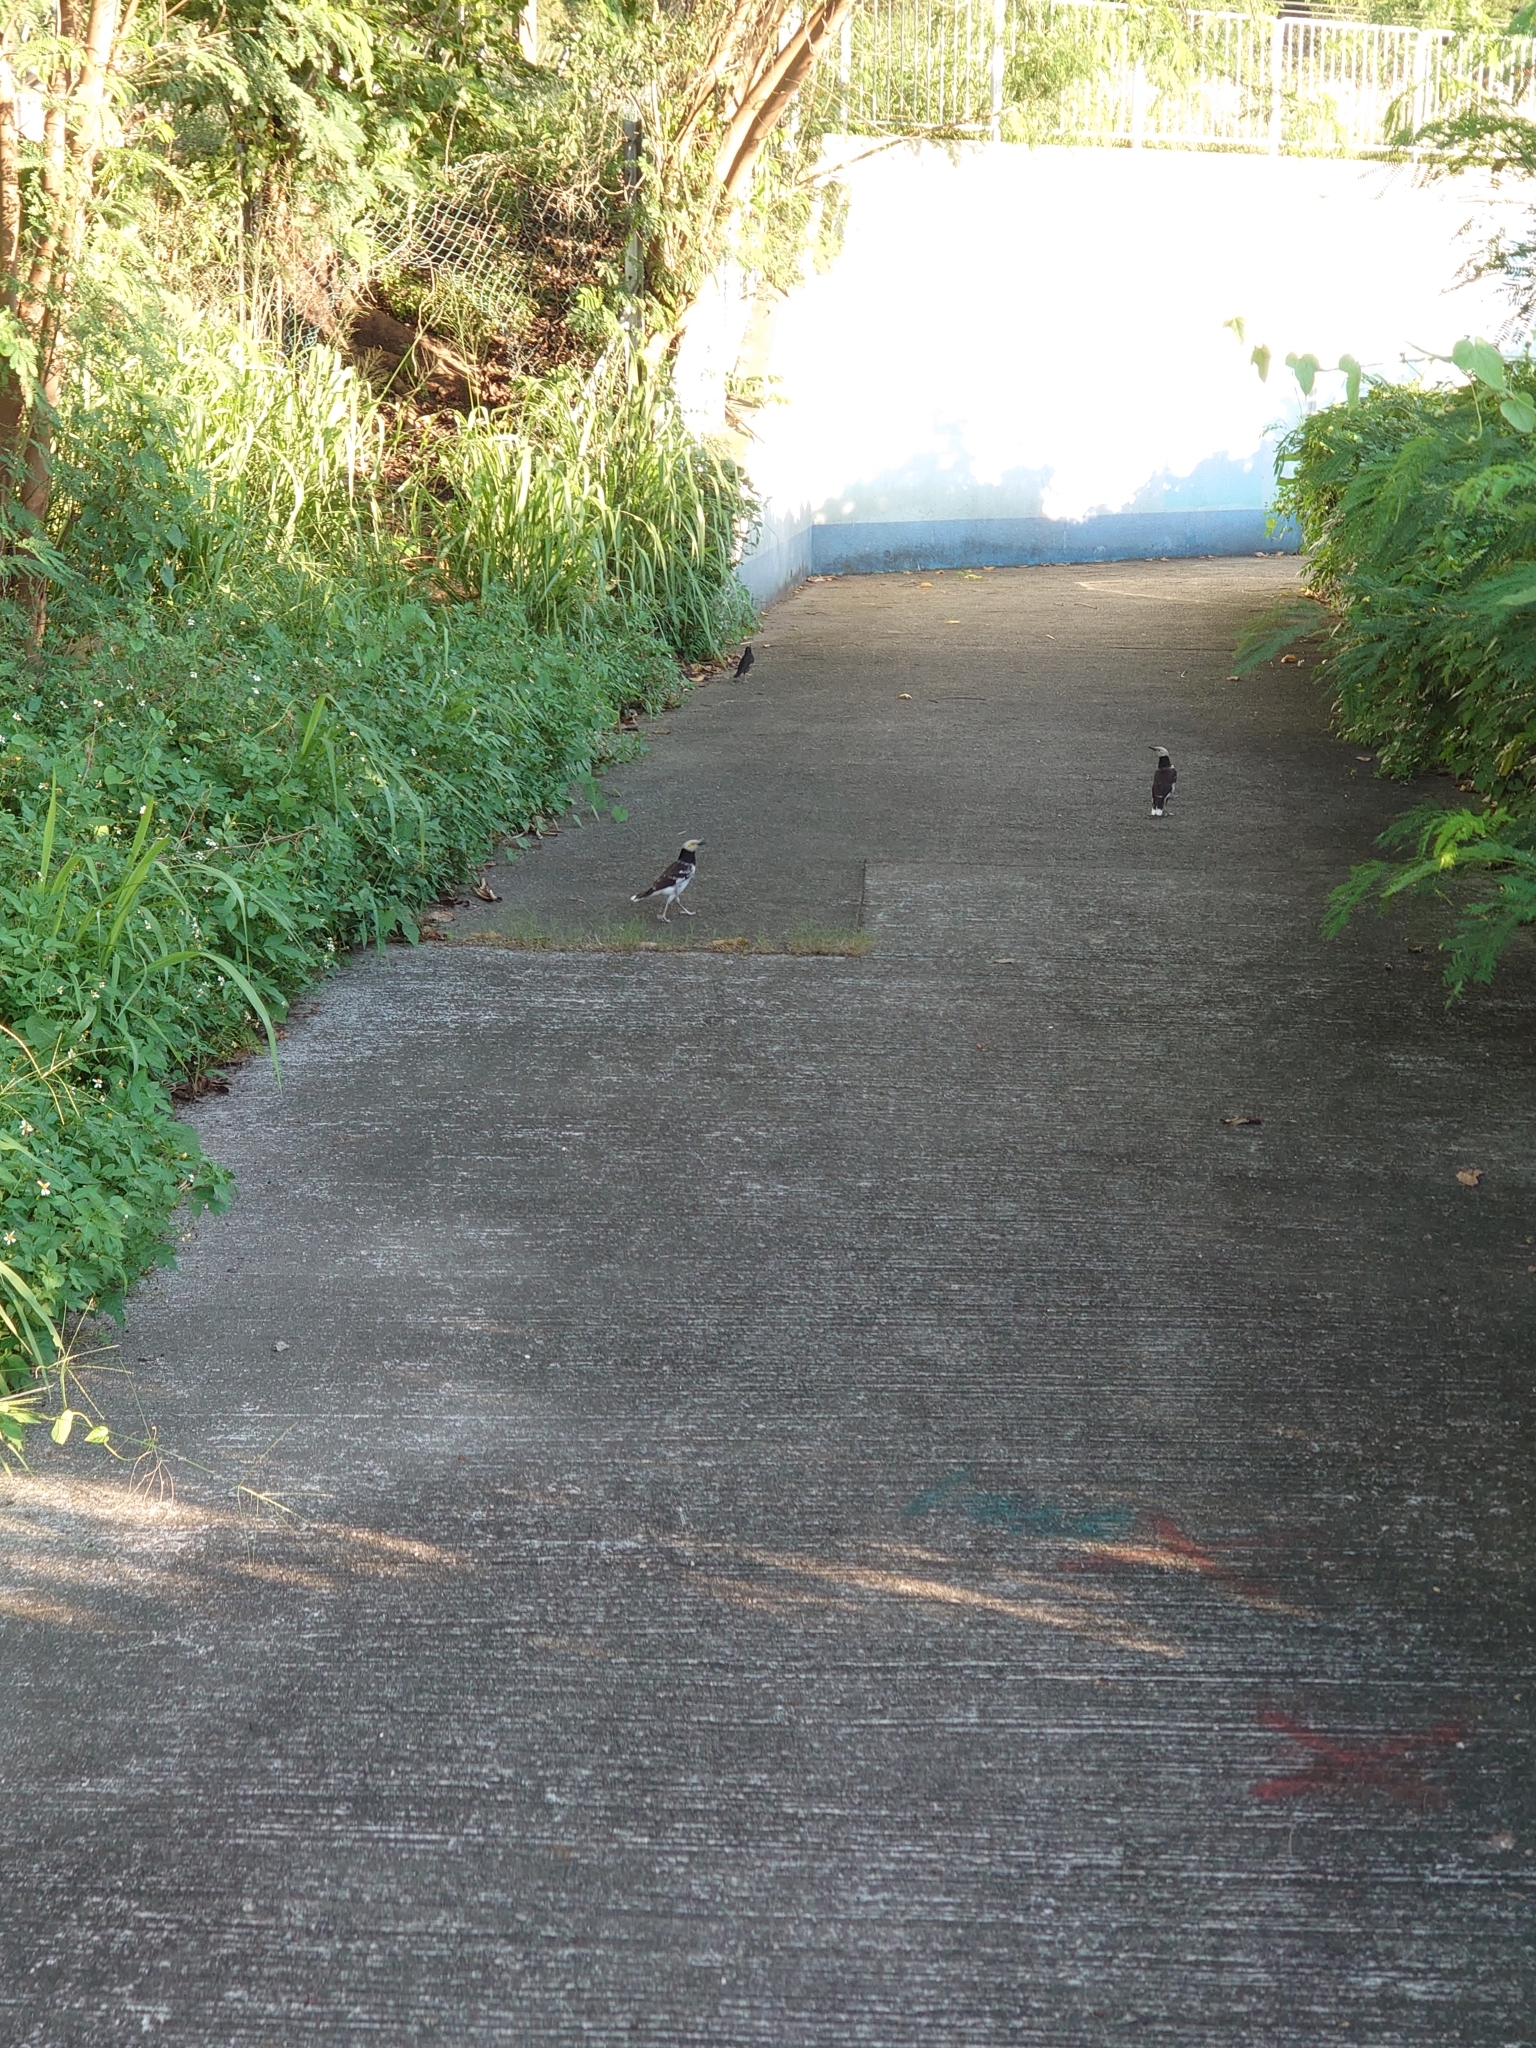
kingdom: Animalia
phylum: Chordata
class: Aves
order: Passeriformes
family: Sturnidae
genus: Gracupica
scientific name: Gracupica nigricollis
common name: Black-collared starling
